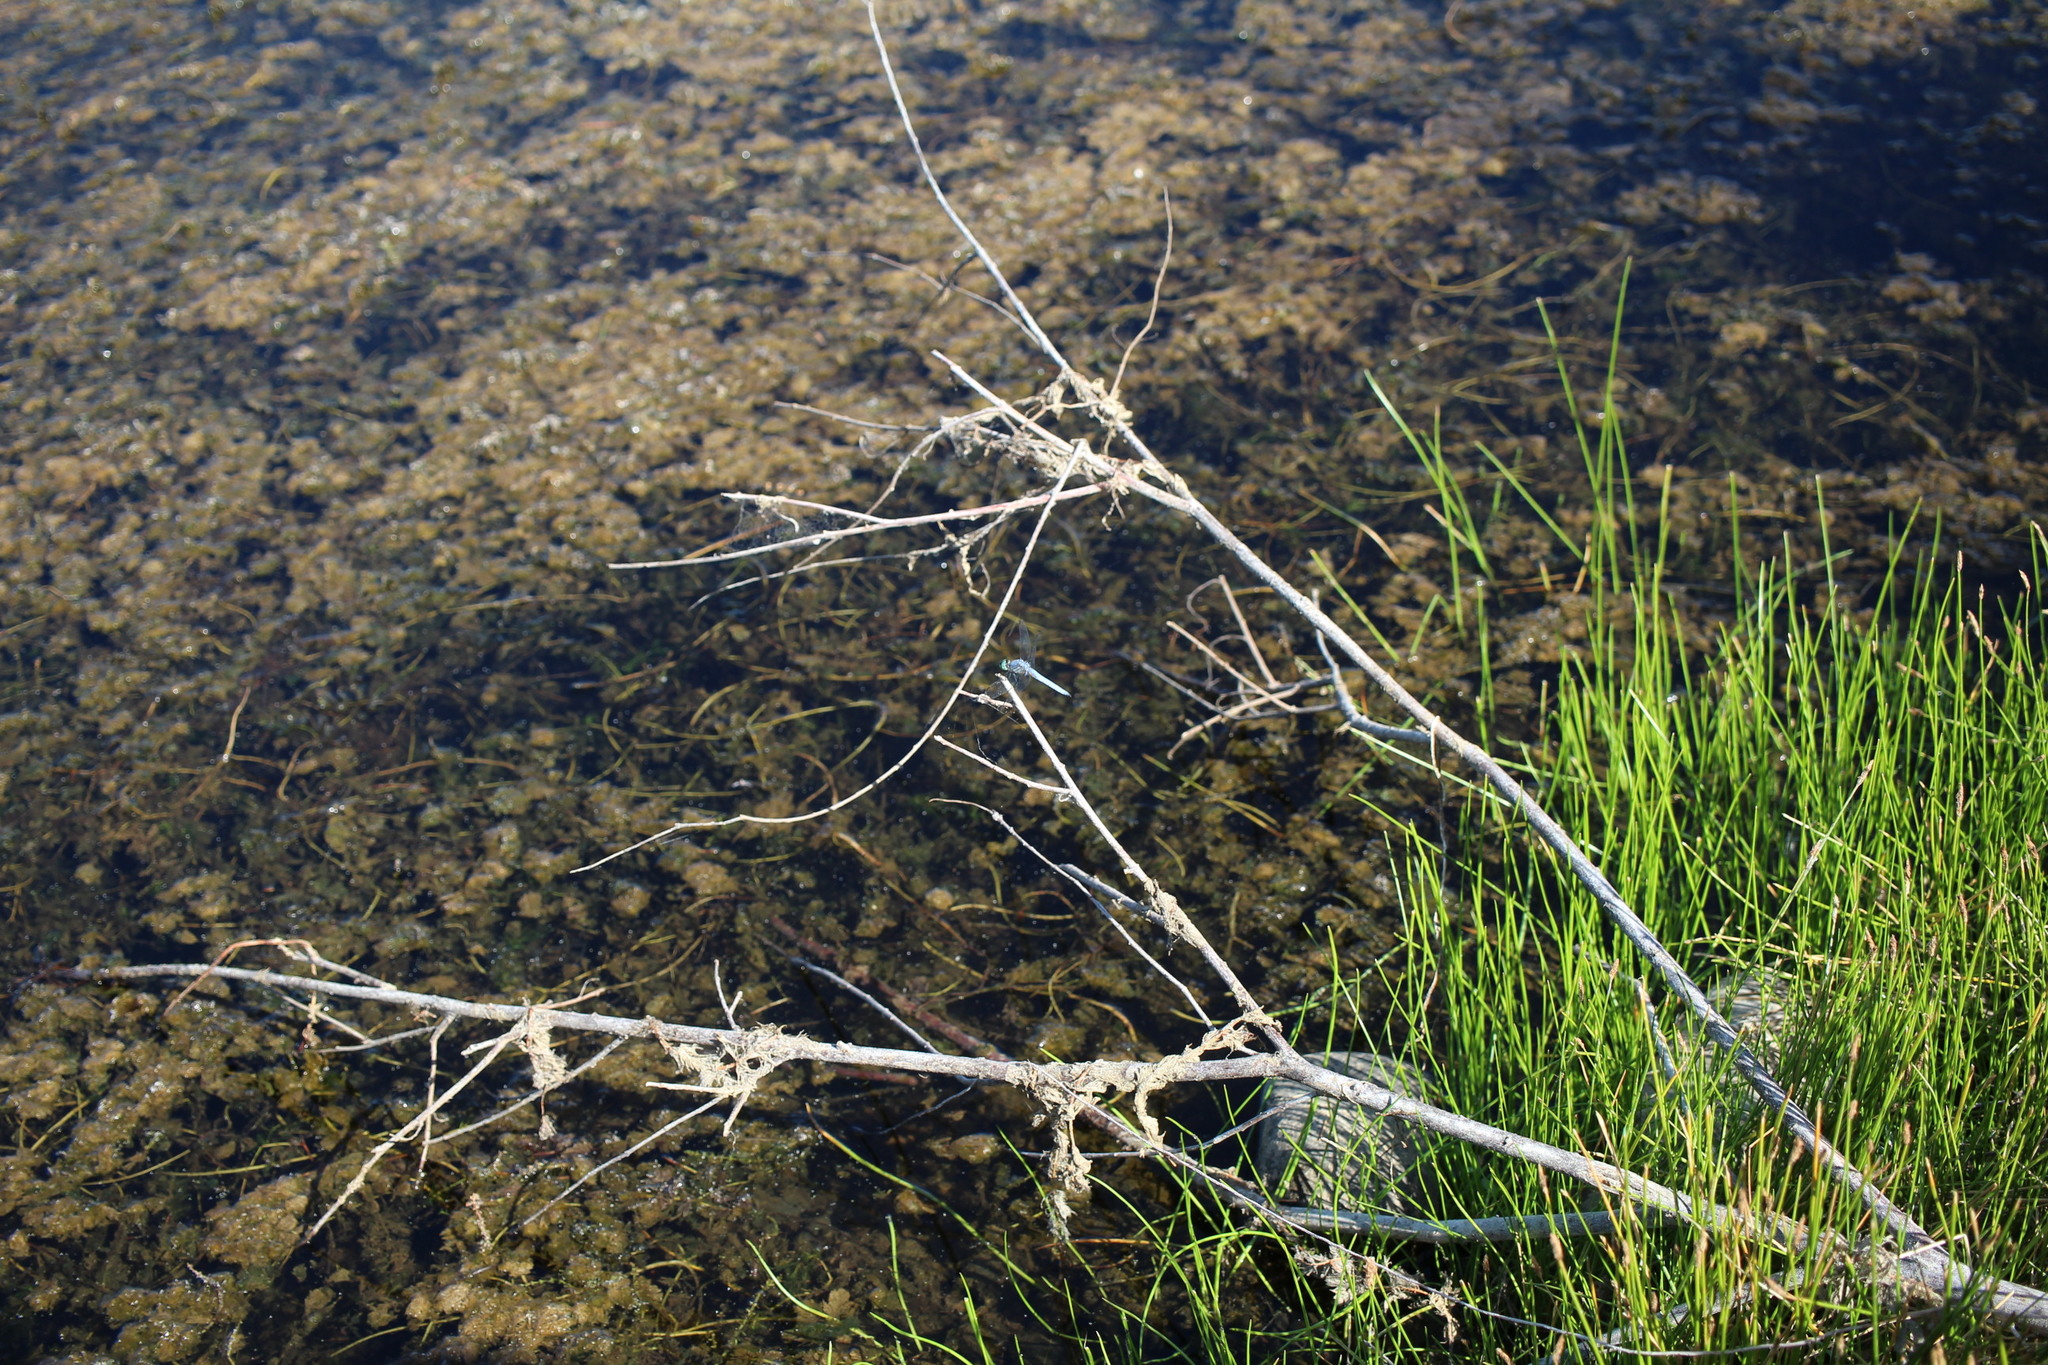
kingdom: Animalia
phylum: Arthropoda
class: Insecta
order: Odonata
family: Libellulidae
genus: Pachydiplax
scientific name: Pachydiplax longipennis
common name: Blue dasher
